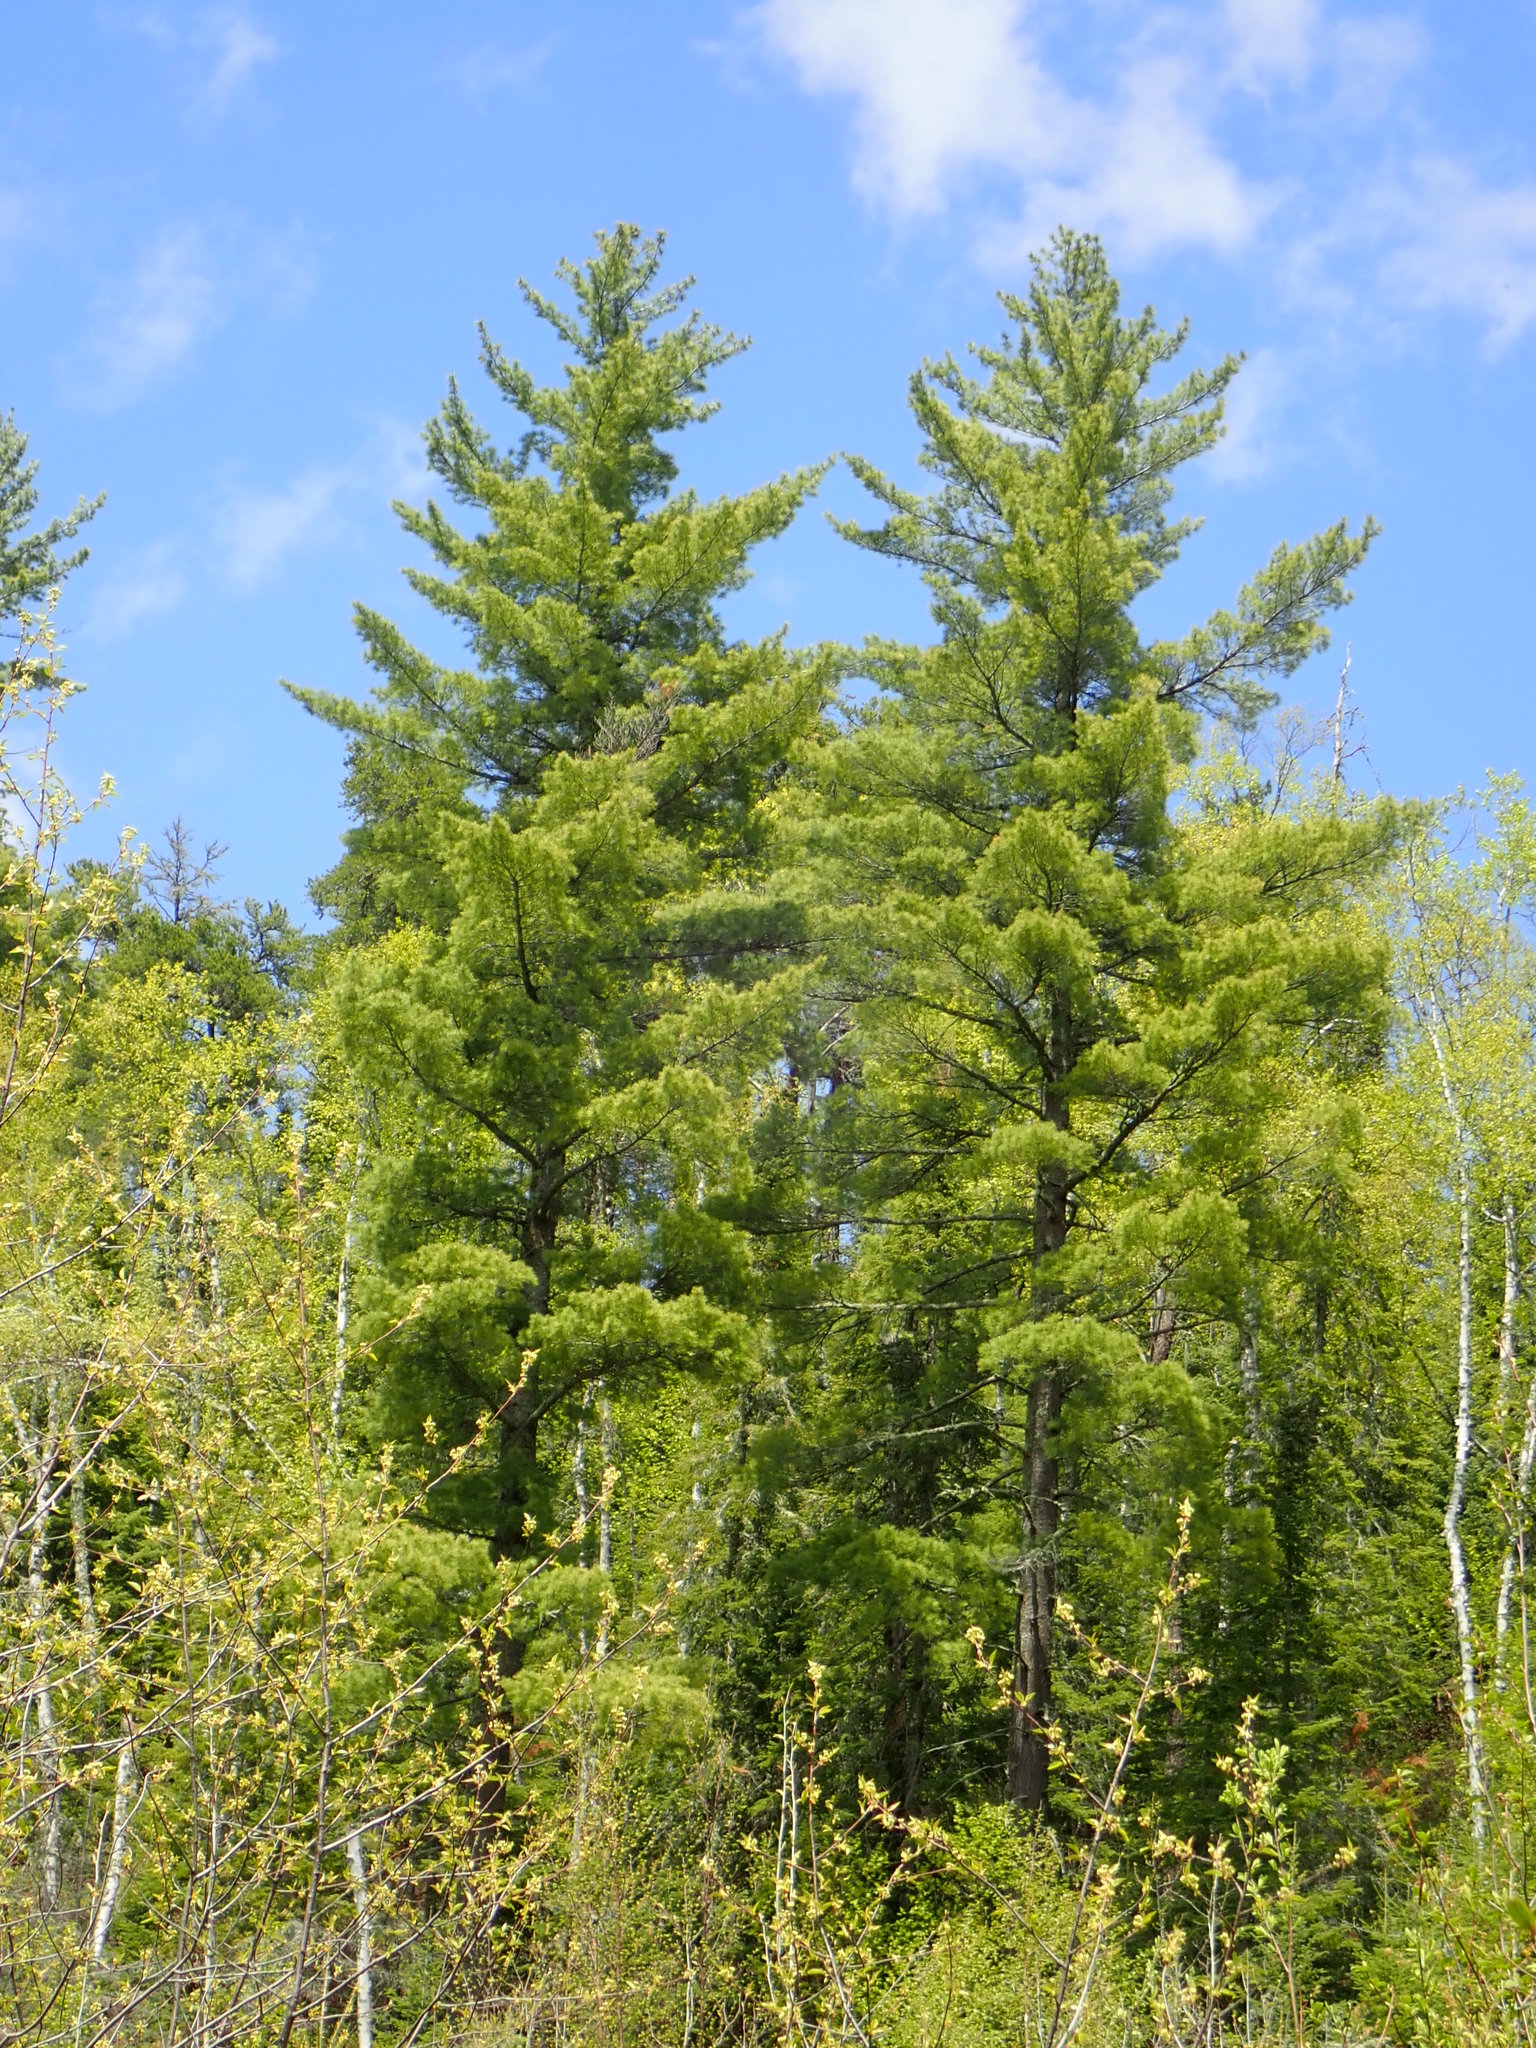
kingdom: Plantae
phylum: Tracheophyta
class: Pinopsida
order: Pinales
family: Pinaceae
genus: Pinus
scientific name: Pinus strobus
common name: Weymouth pine
